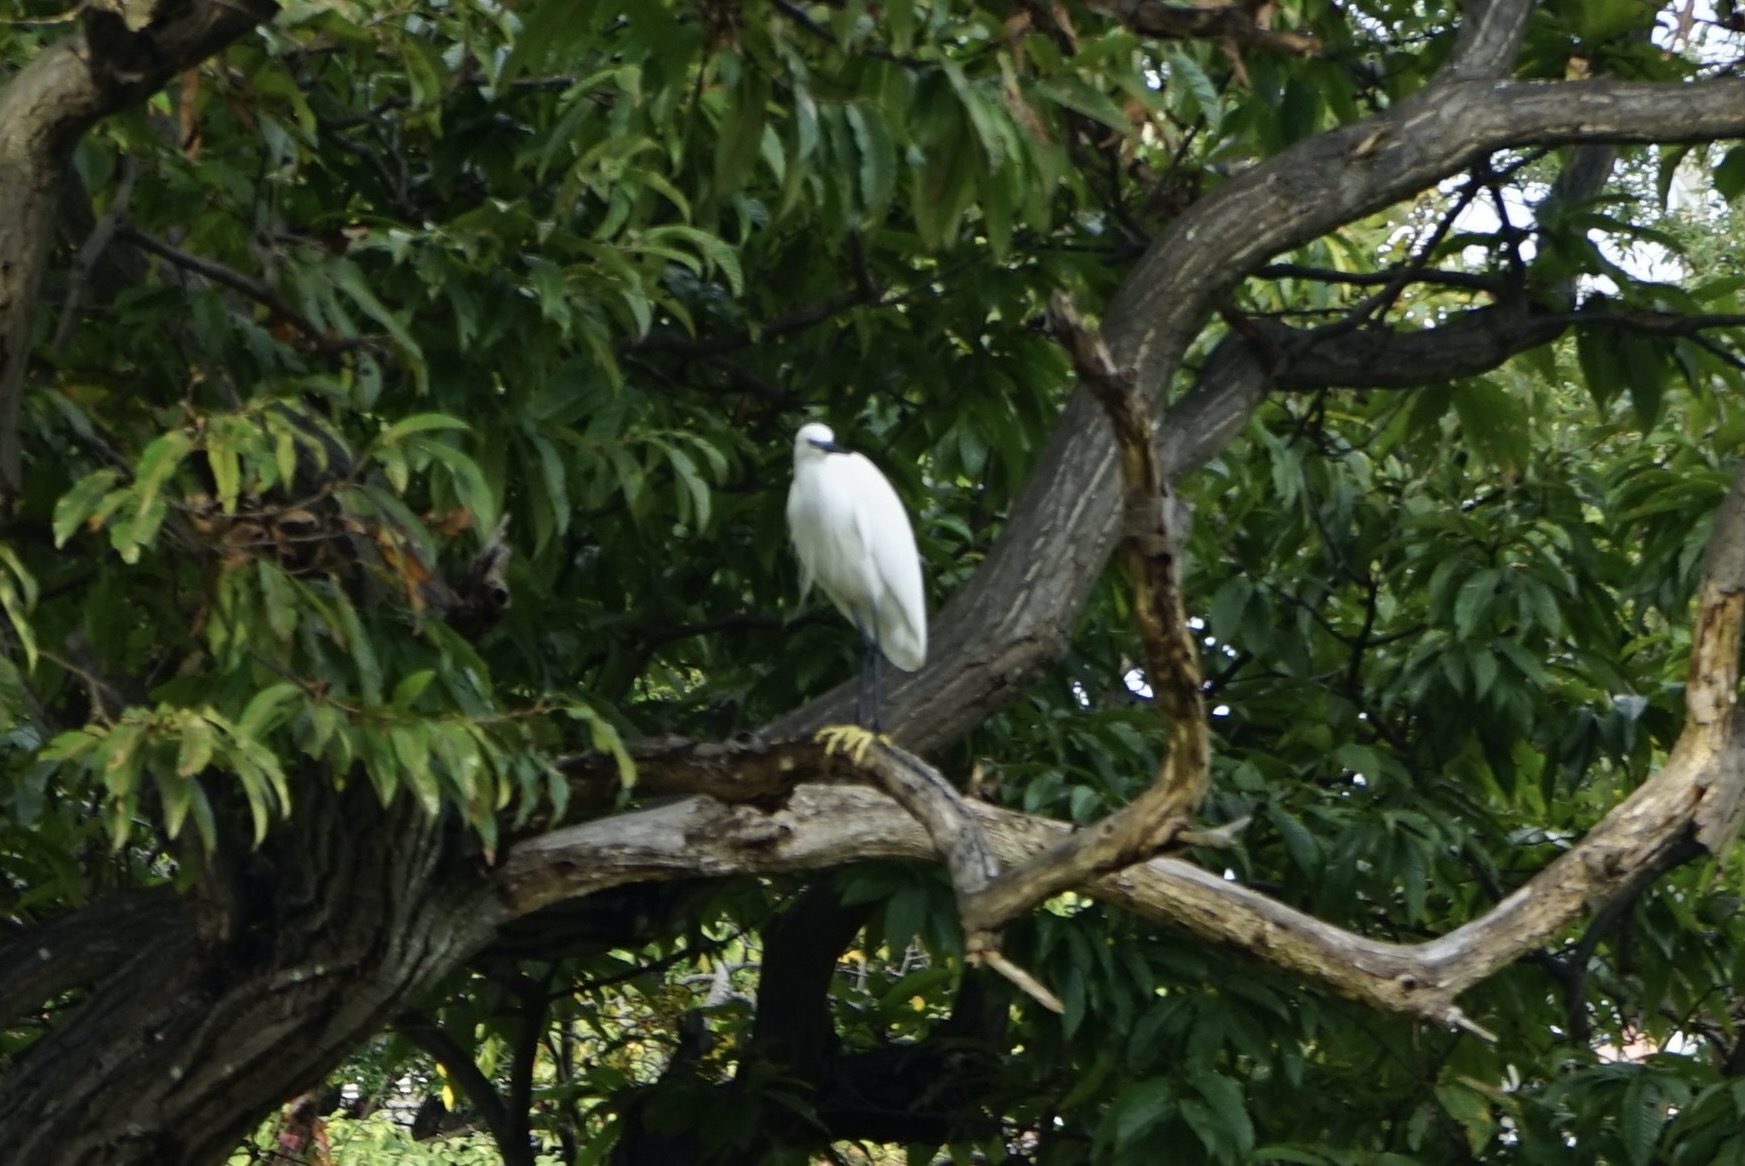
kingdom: Animalia
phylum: Chordata
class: Aves
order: Pelecaniformes
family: Ardeidae
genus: Egretta
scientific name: Egretta garzetta
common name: Little egret
